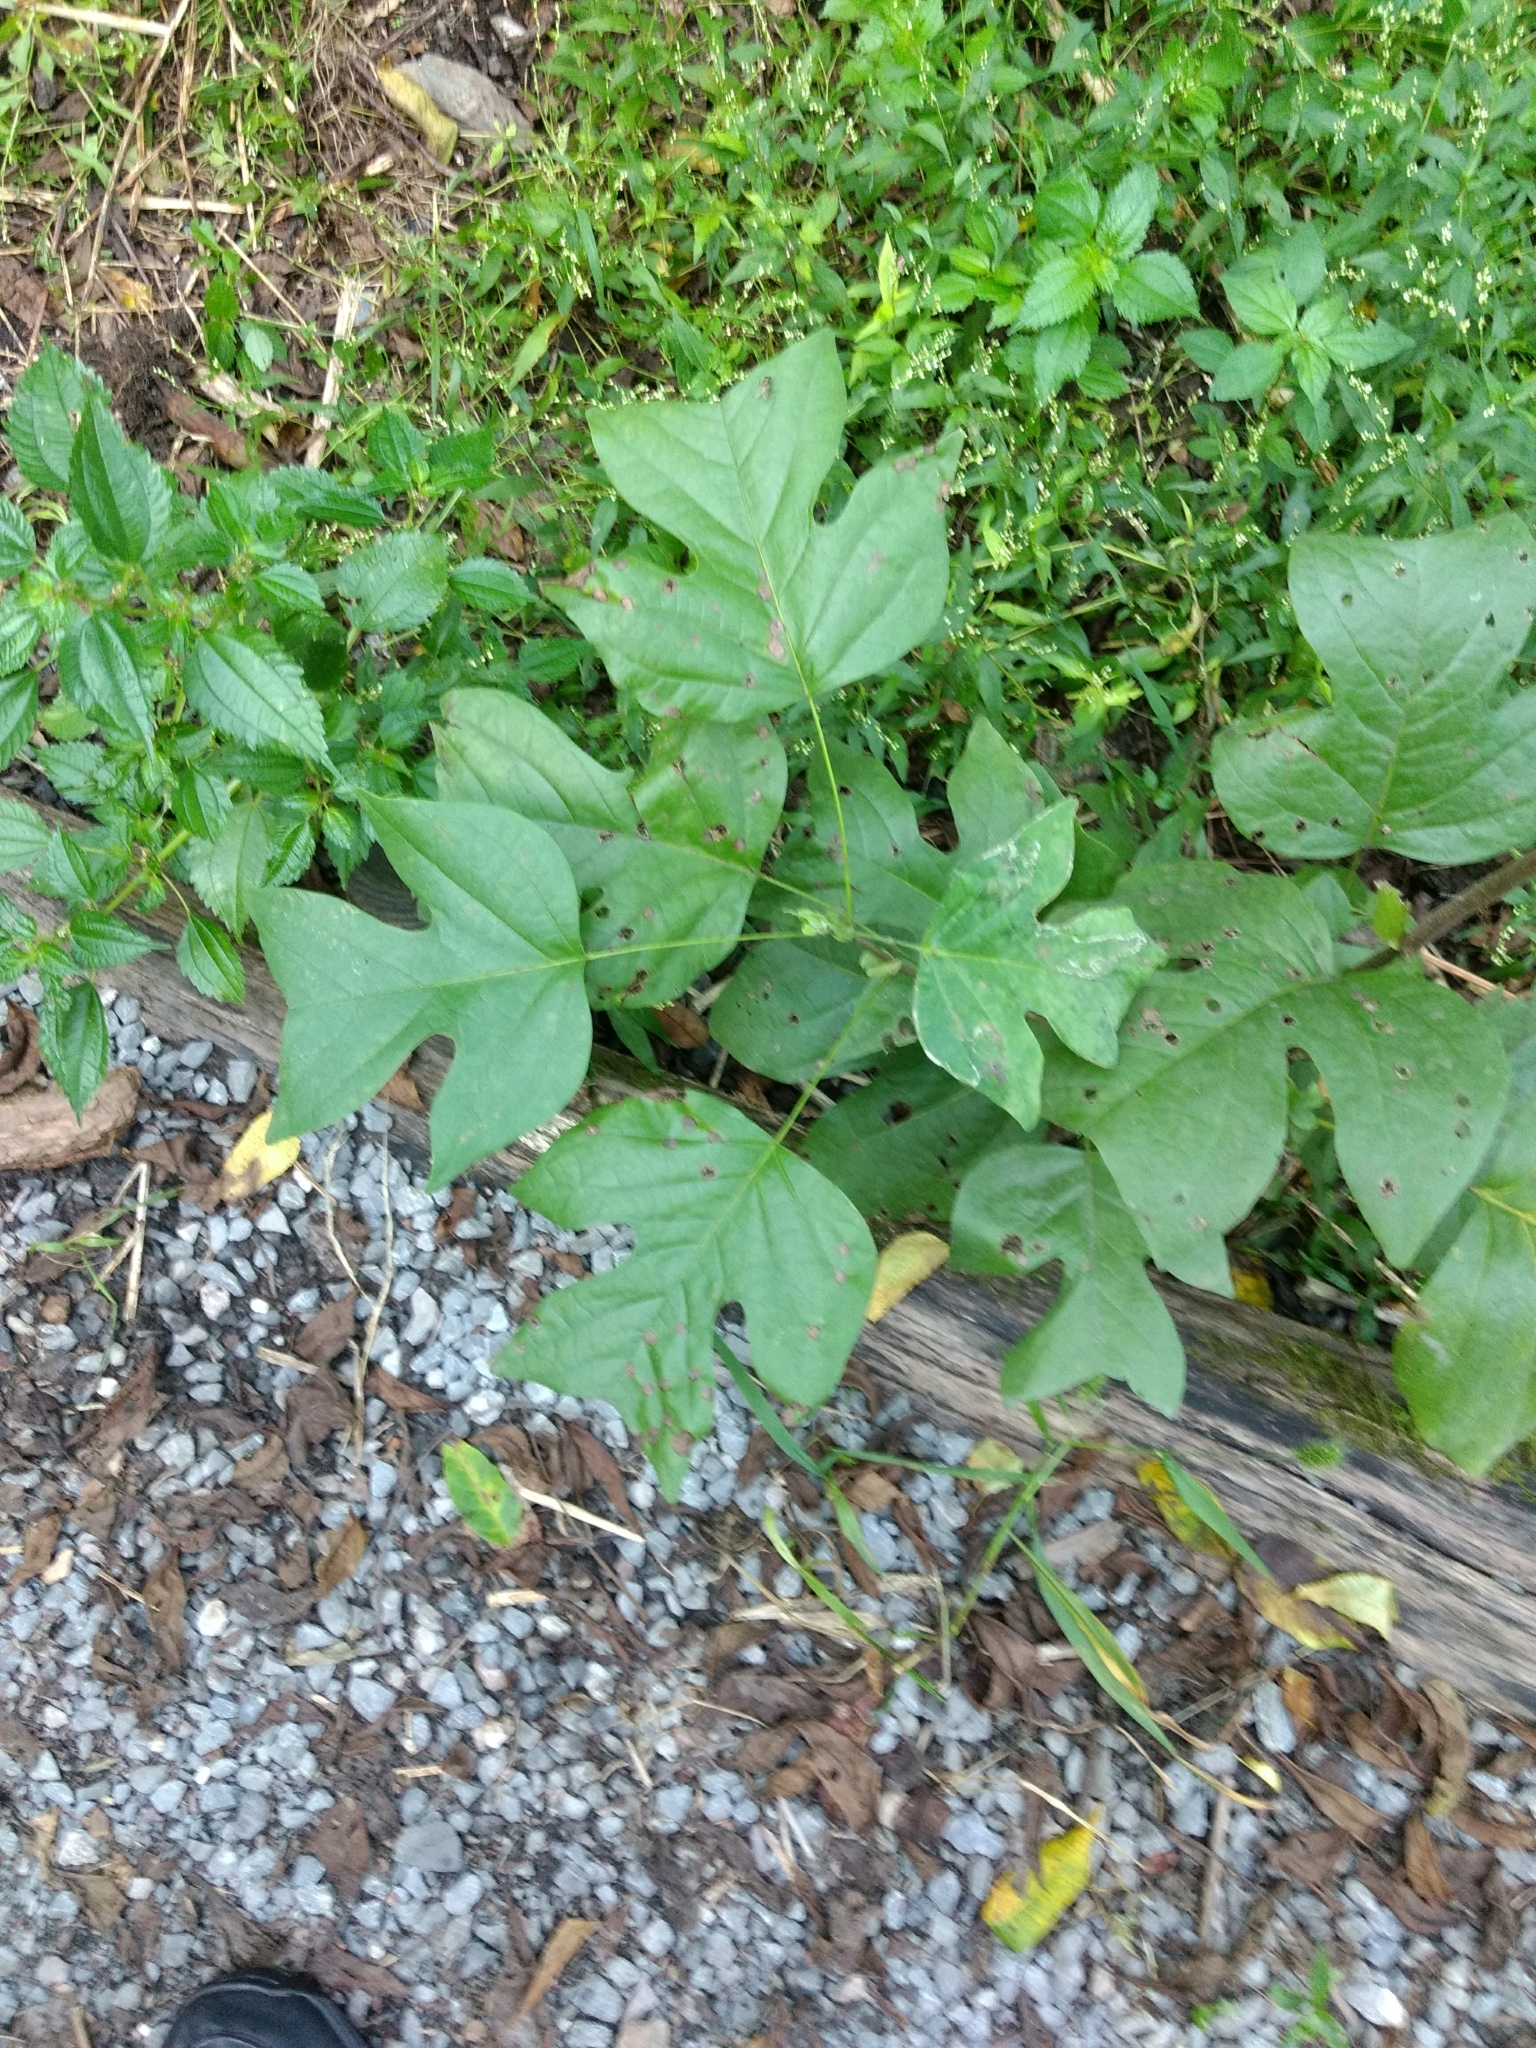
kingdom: Plantae
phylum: Tracheophyta
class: Magnoliopsida
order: Magnoliales
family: Magnoliaceae
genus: Liriodendron
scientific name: Liriodendron tulipifera
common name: Tulip tree
